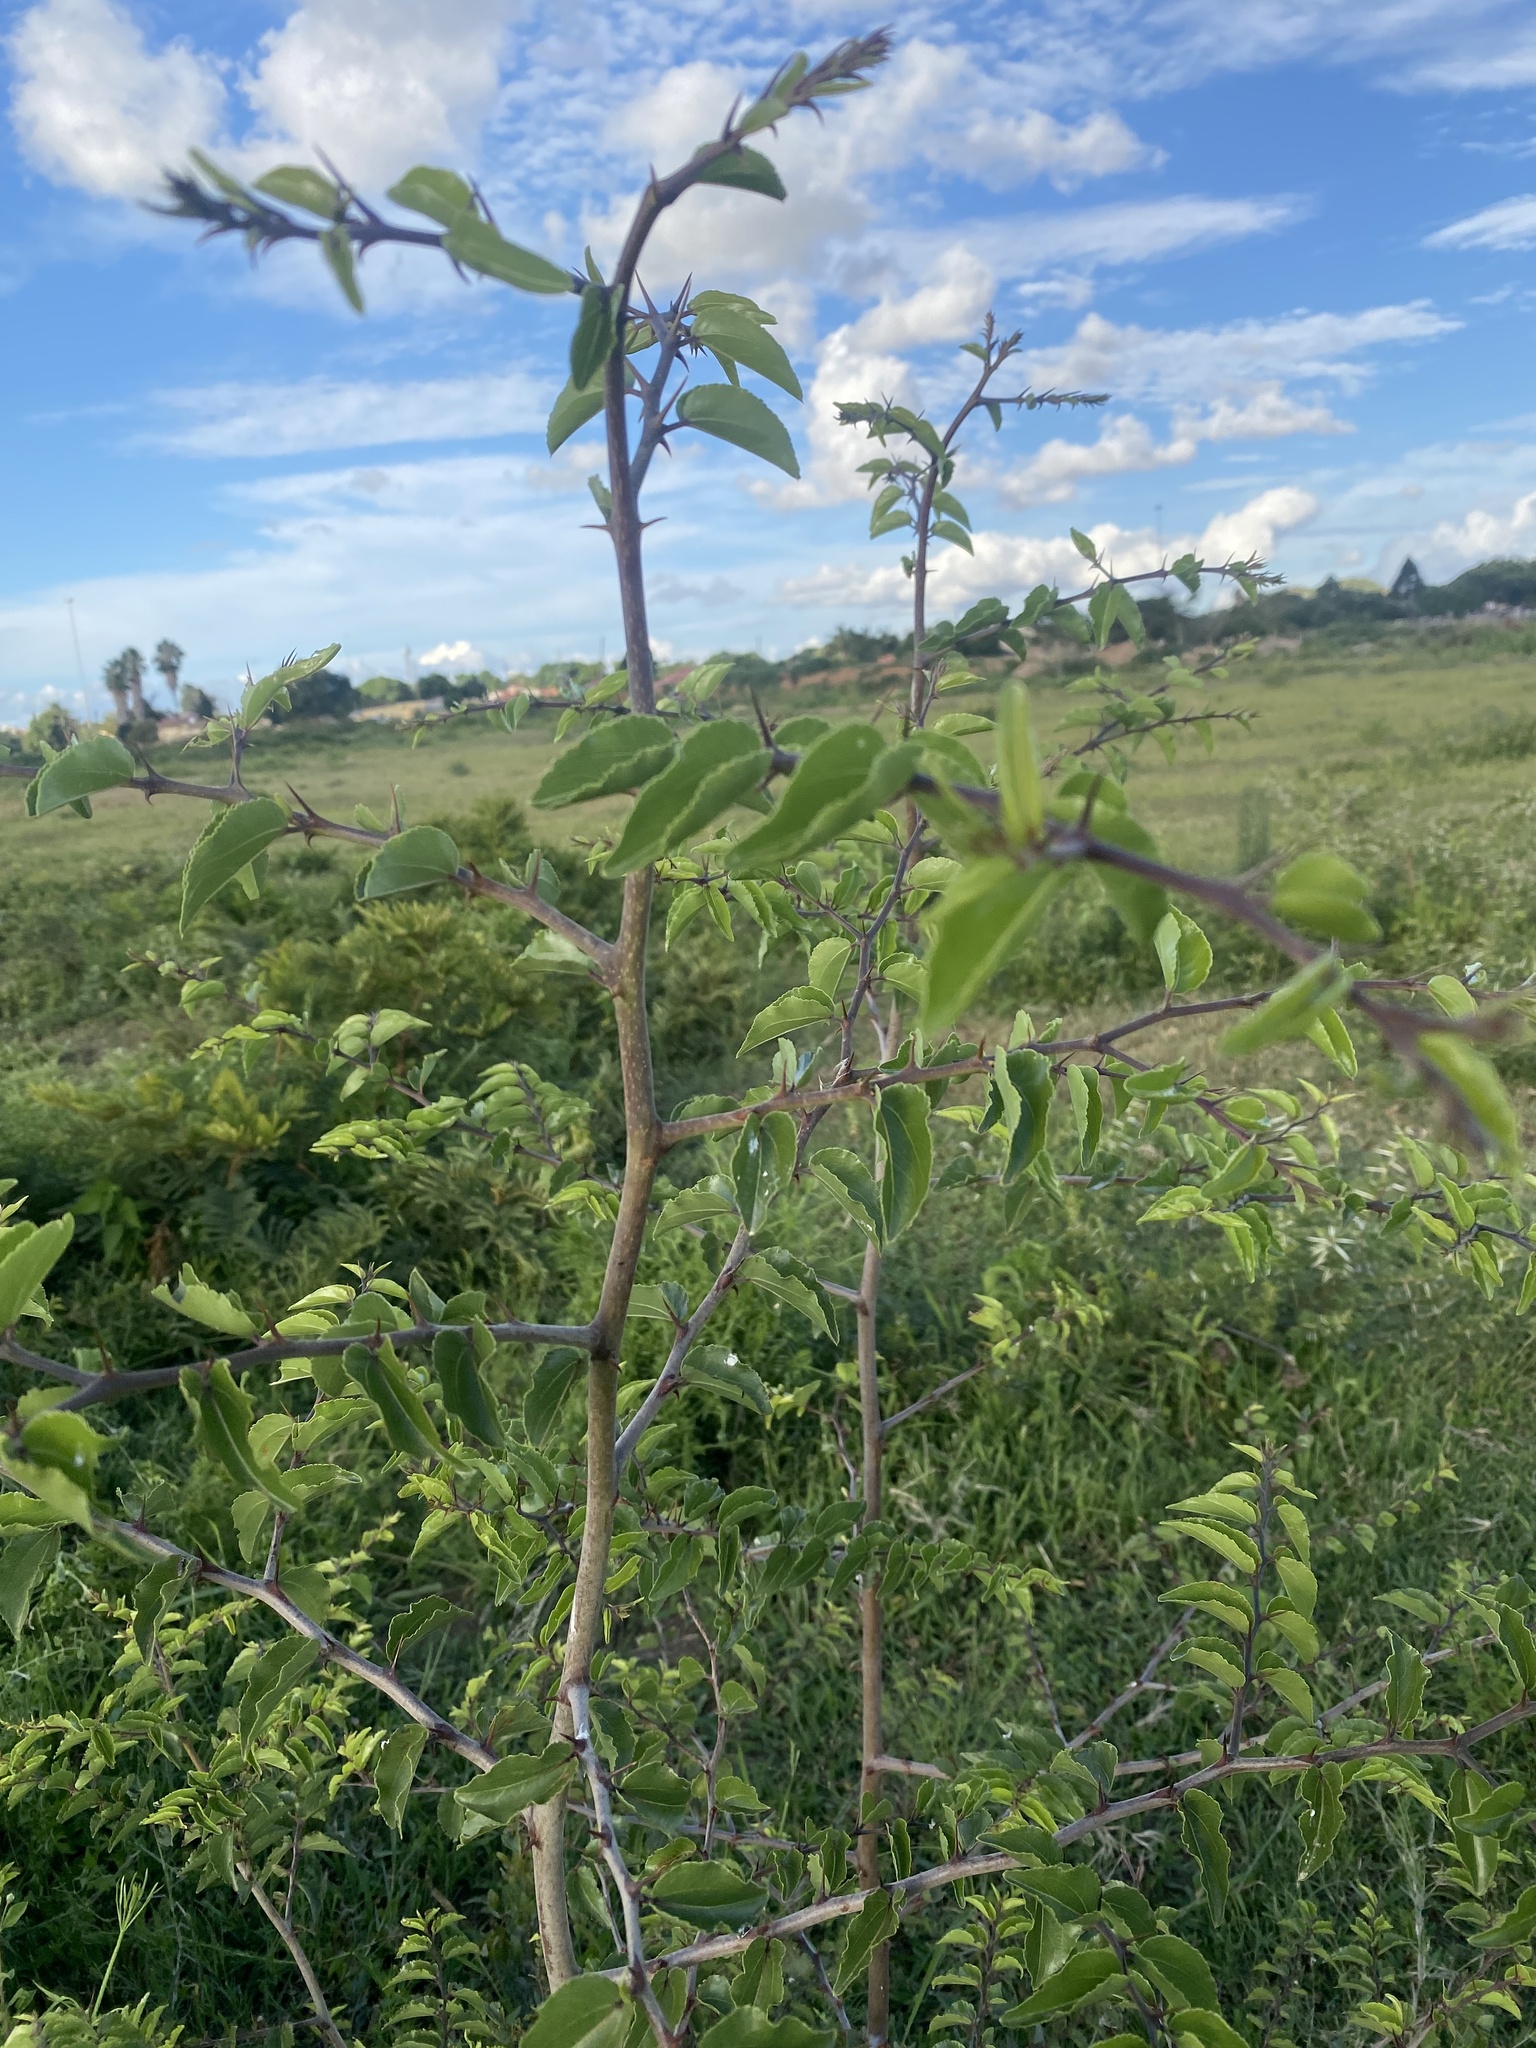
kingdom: Plantae
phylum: Tracheophyta
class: Magnoliopsida
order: Rosales
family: Rhamnaceae
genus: Ziziphus
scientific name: Ziziphus mucronata
